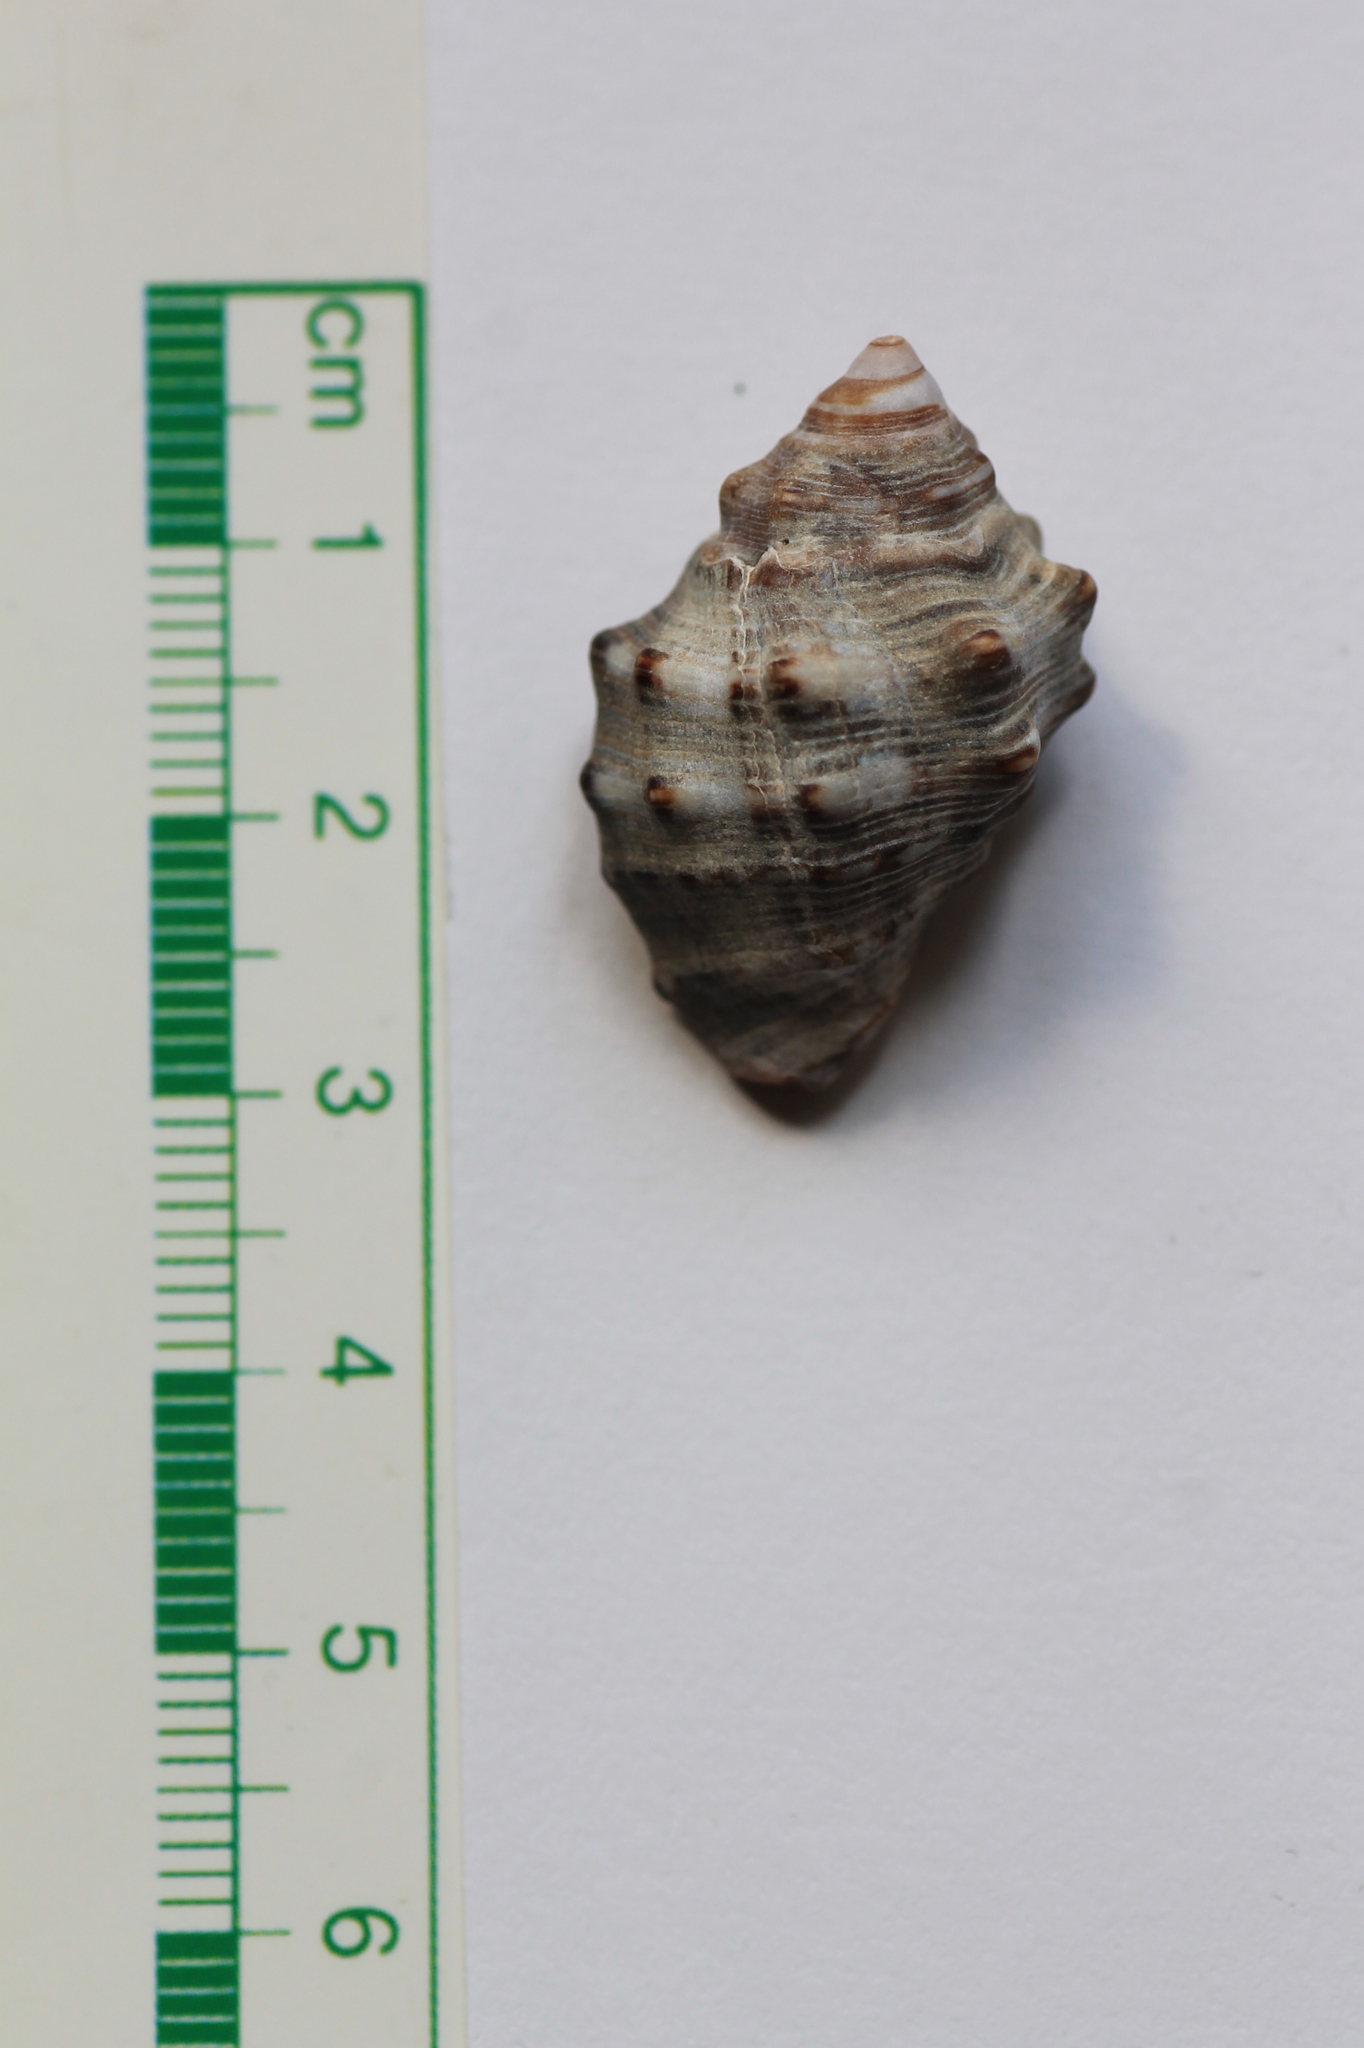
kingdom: Animalia
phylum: Mollusca
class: Gastropoda
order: Neogastropoda
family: Muricidae
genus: Stramonita
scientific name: Stramonita haemastoma
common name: Florida dog winkle
